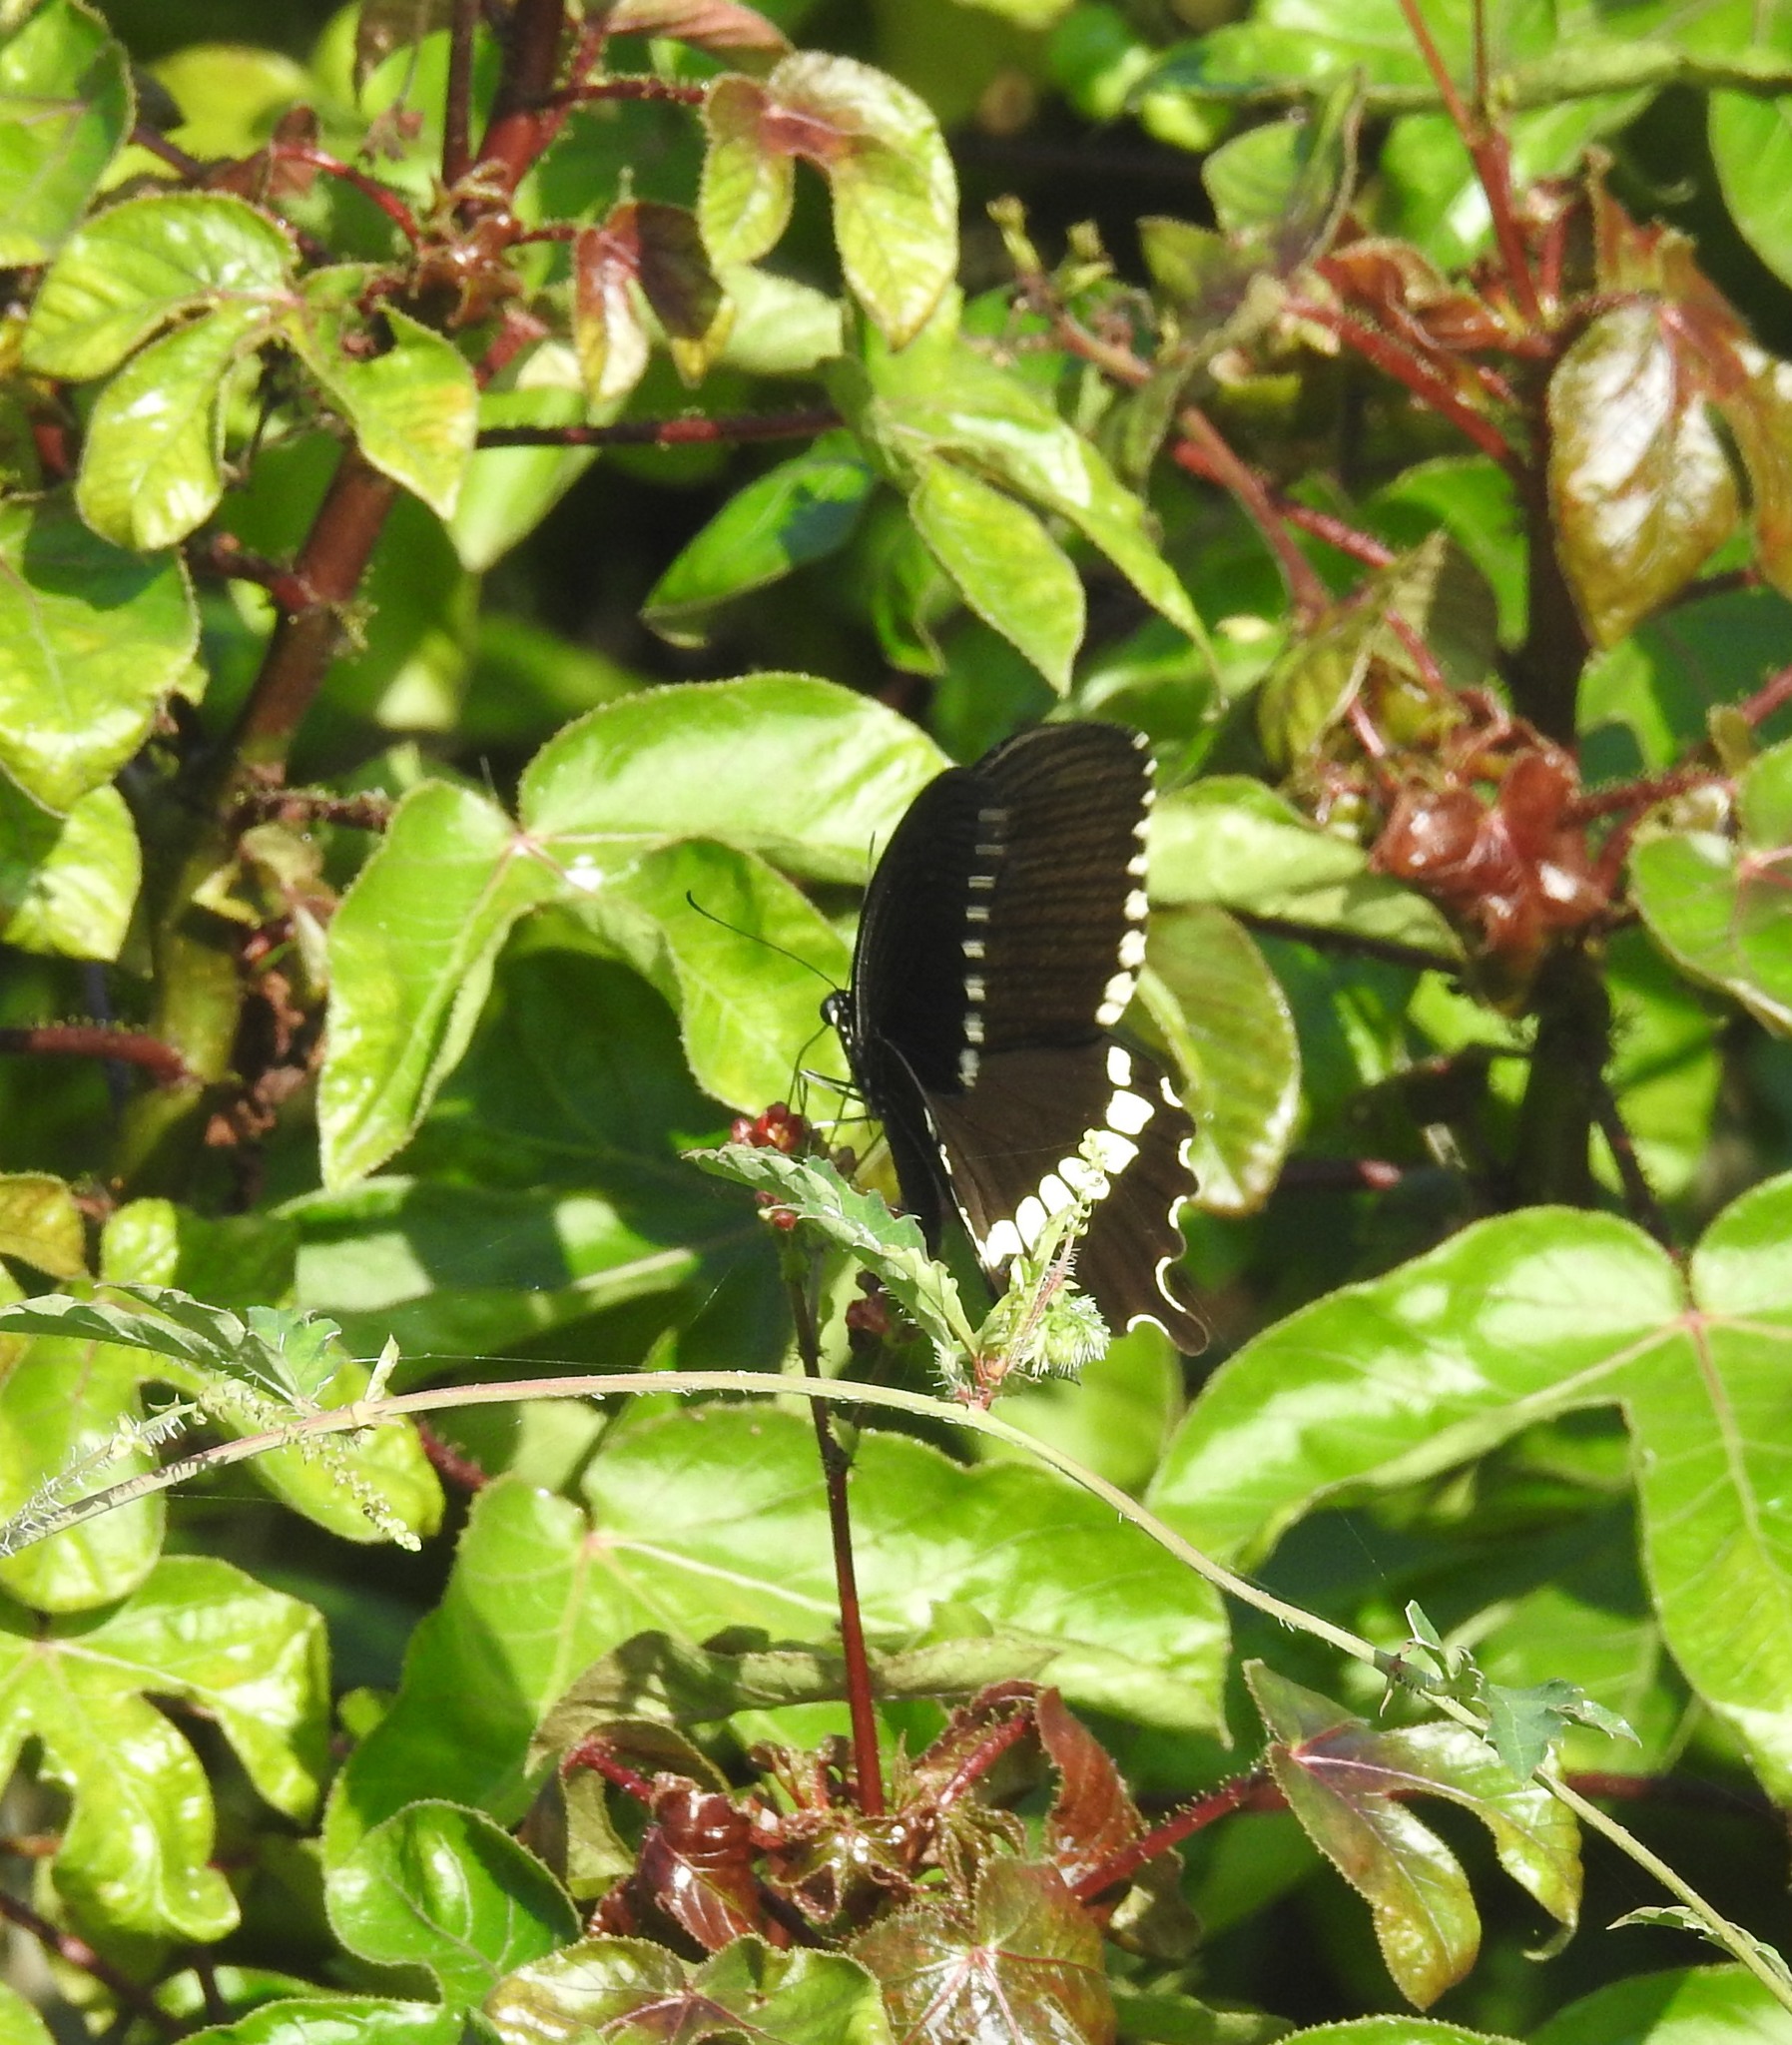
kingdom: Animalia
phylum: Arthropoda
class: Insecta
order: Lepidoptera
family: Papilionidae
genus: Papilio
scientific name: Papilio polytes
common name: Common mormon
